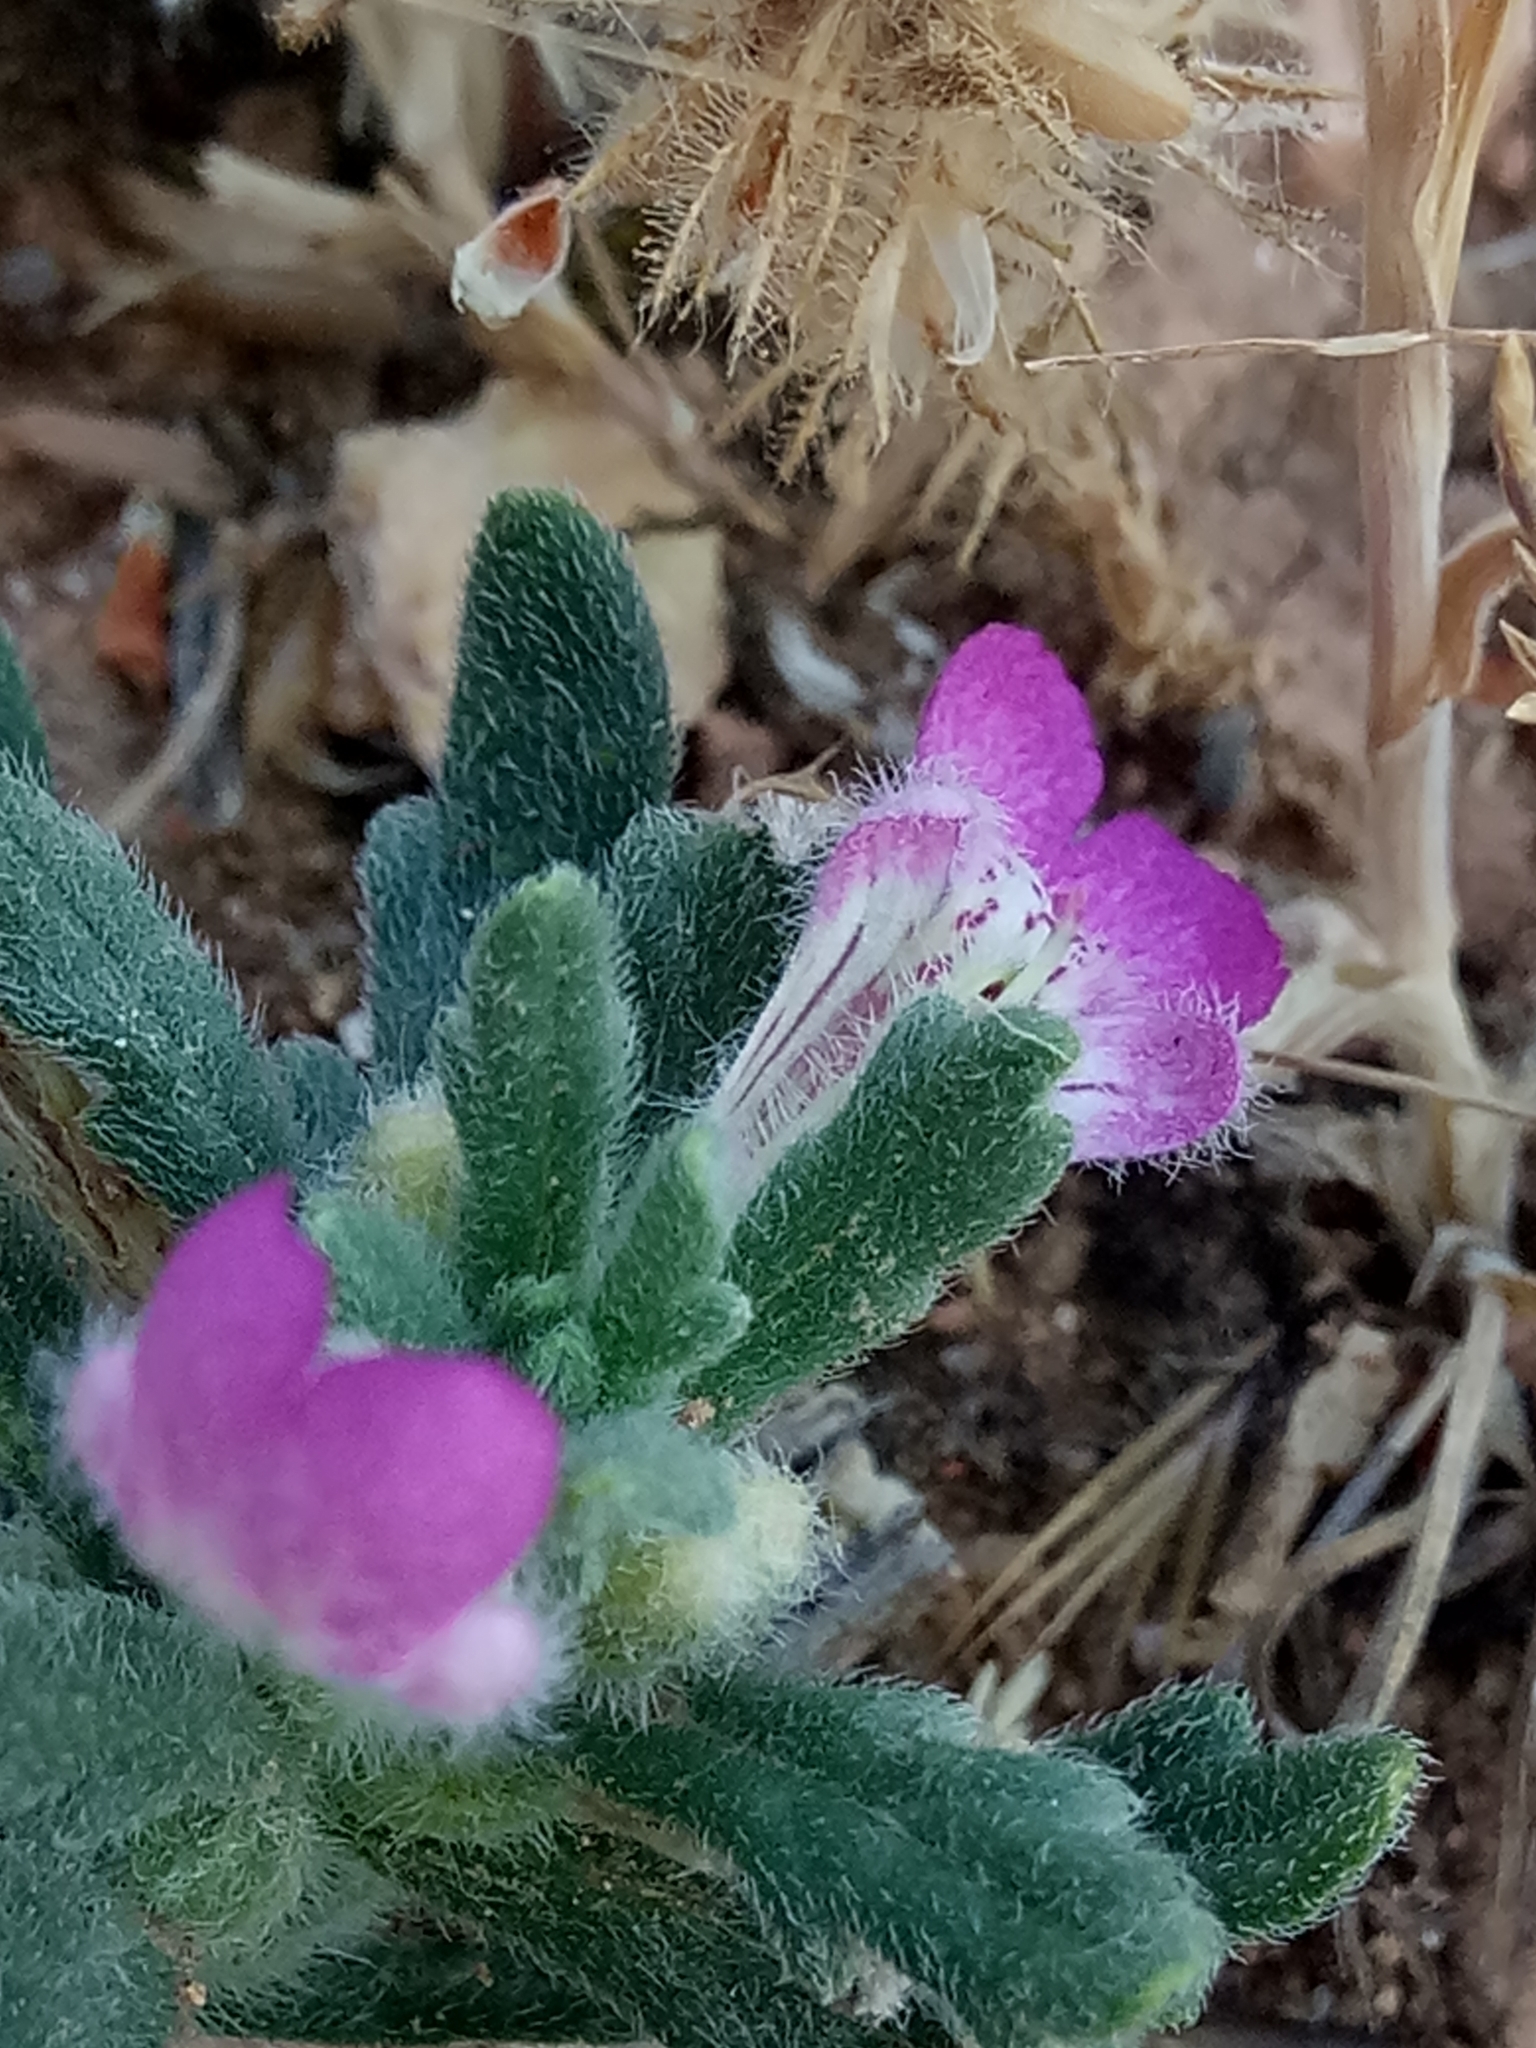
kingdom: Plantae
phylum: Tracheophyta
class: Magnoliopsida
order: Lamiales
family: Lamiaceae
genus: Ajuga
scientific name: Ajuga iva
